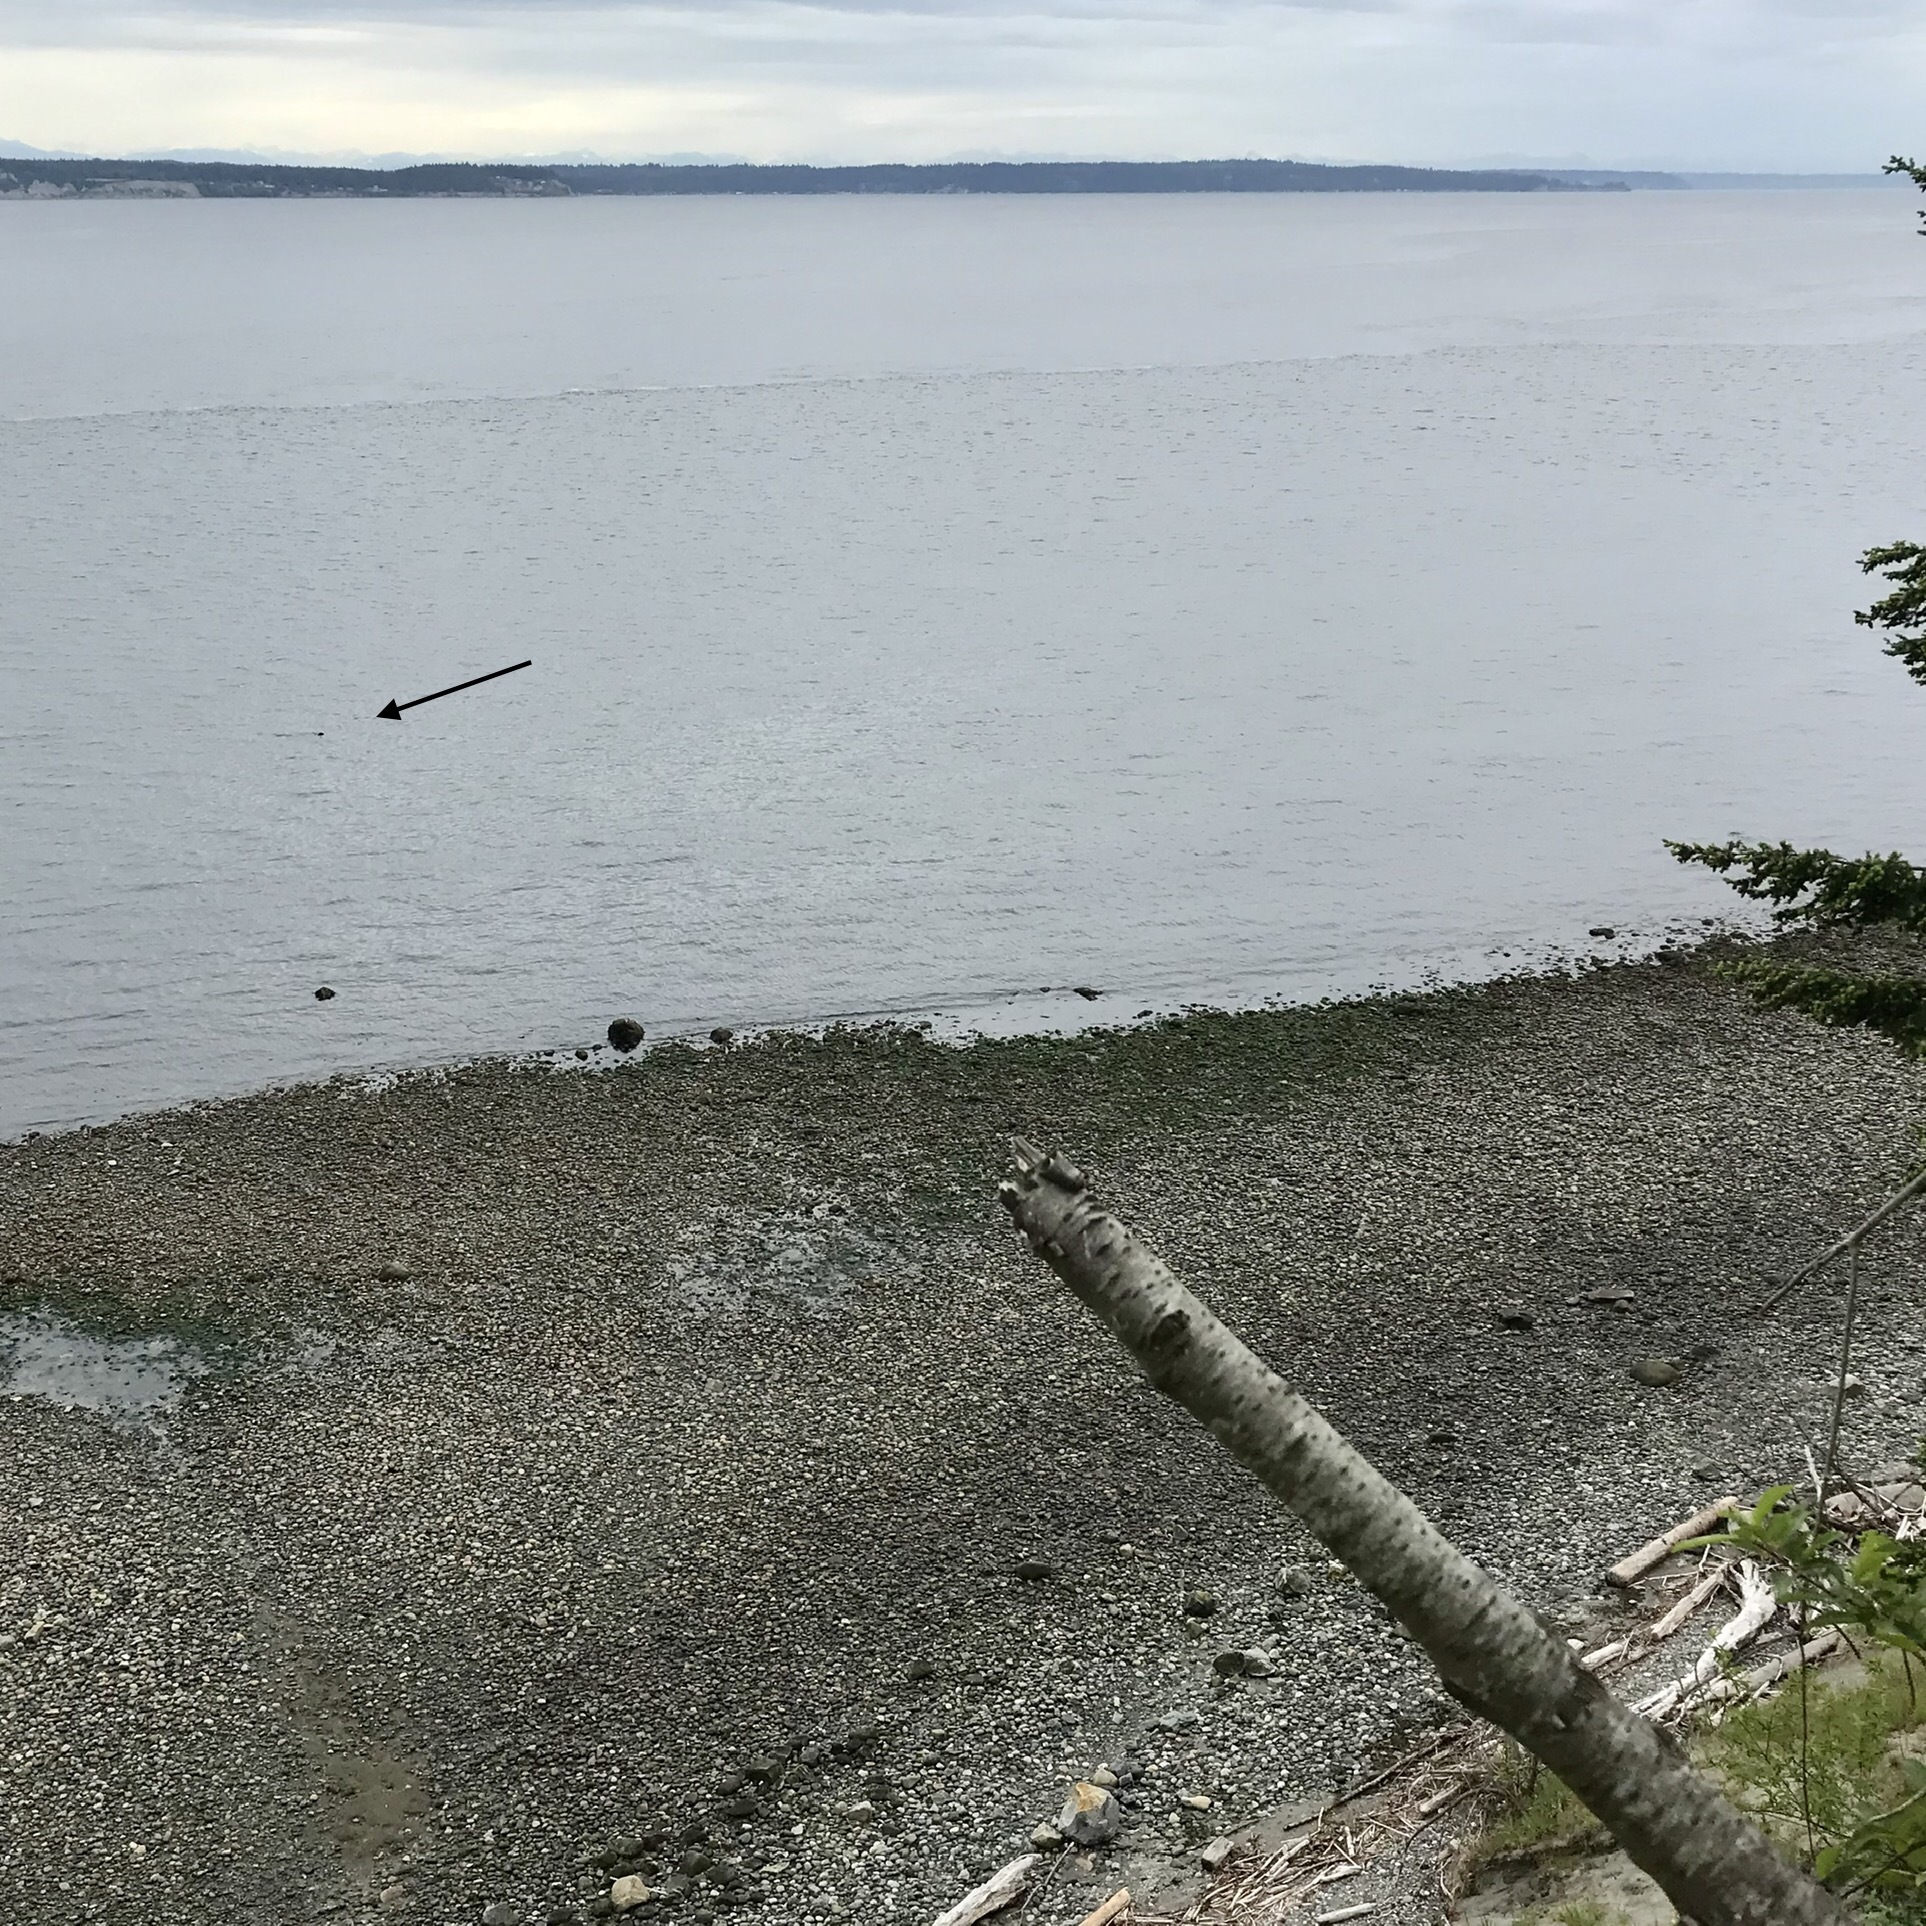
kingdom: Animalia
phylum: Chordata
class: Mammalia
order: Carnivora
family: Mustelidae
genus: Lontra
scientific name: Lontra canadensis
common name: North american river otter
